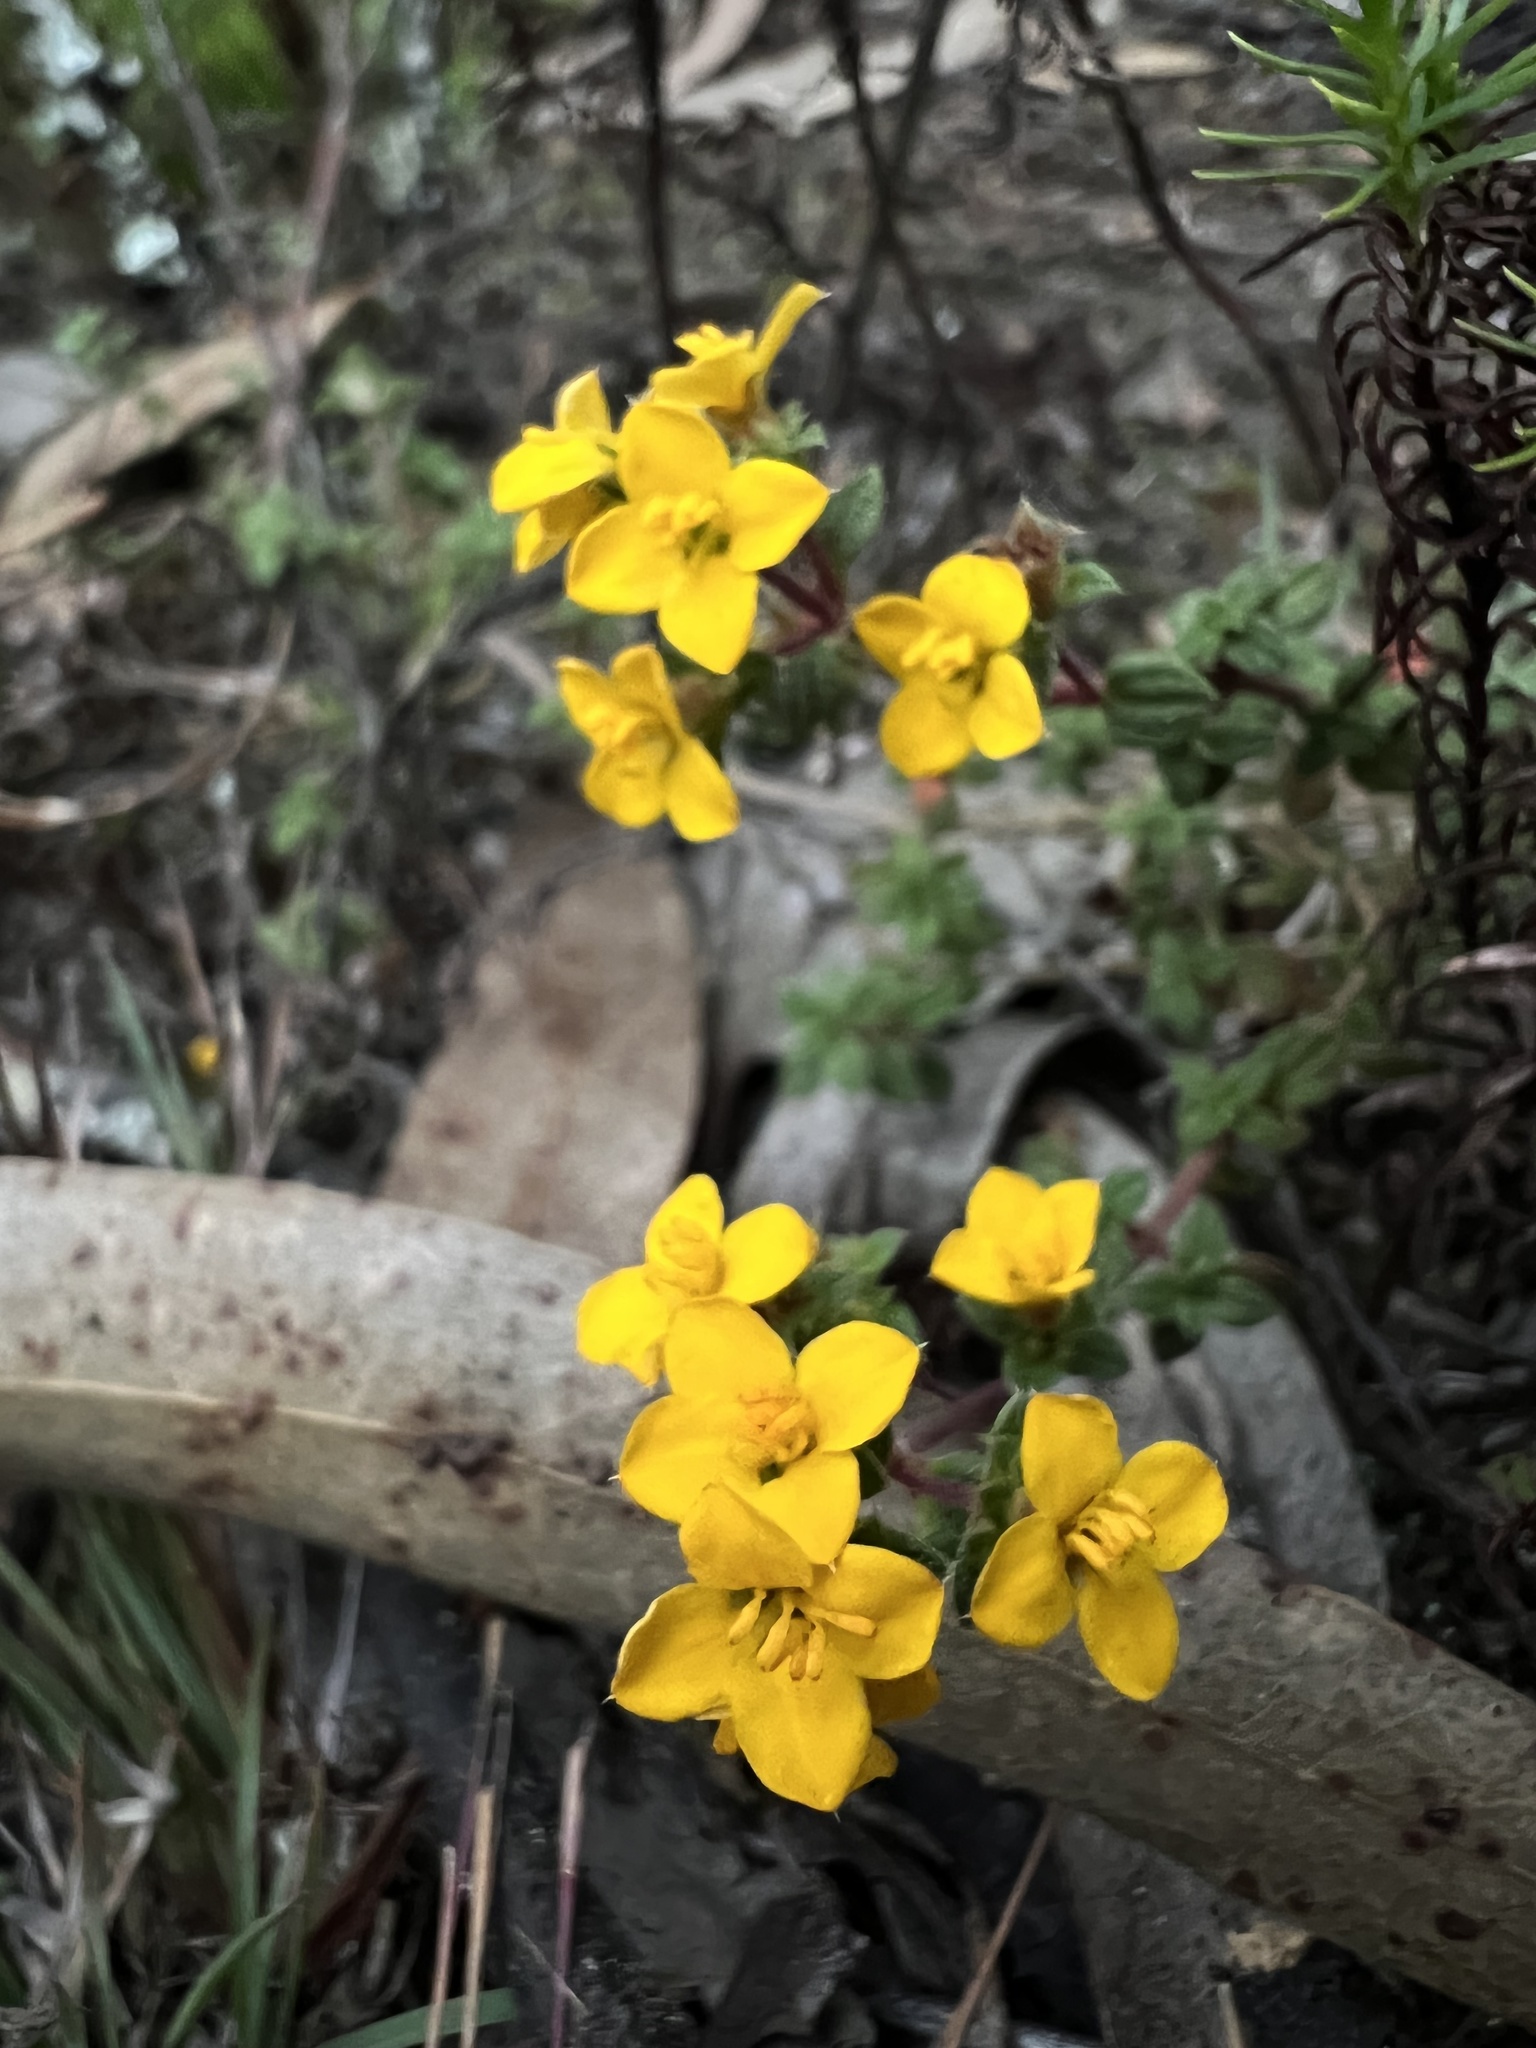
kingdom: Plantae
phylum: Tracheophyta
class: Magnoliopsida
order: Myrtales
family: Melastomataceae
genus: Chaetolepis
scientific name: Chaetolepis microphylla
